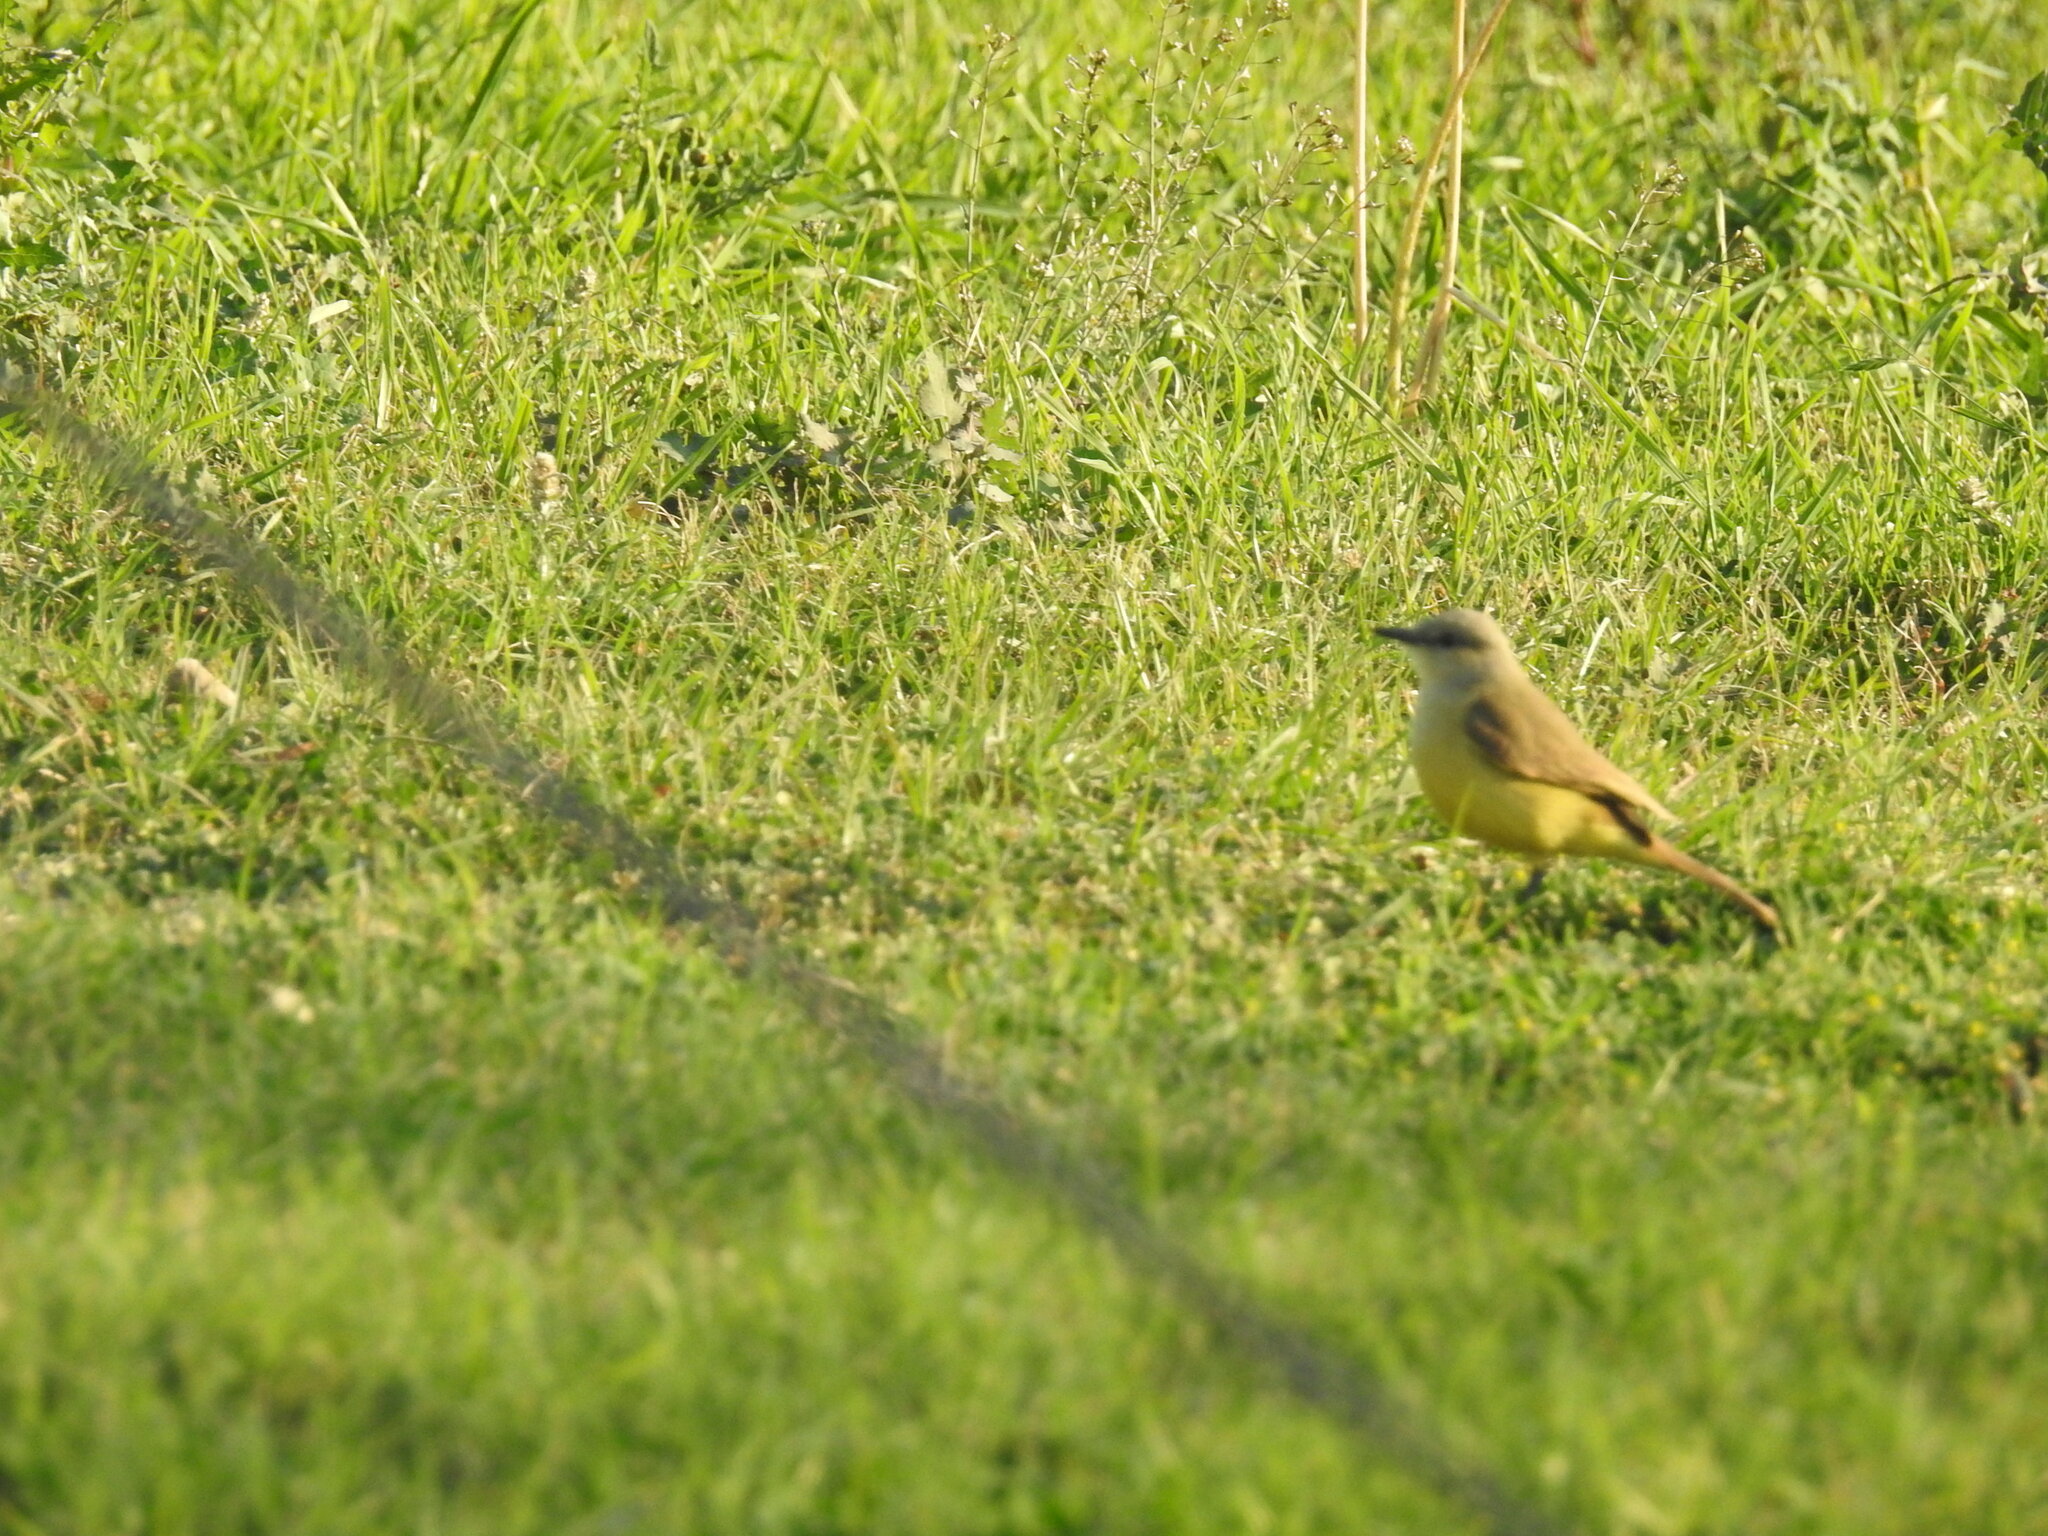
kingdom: Animalia
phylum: Chordata
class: Aves
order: Passeriformes
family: Tyrannidae
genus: Machetornis
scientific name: Machetornis rixosa
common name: Cattle tyrant
